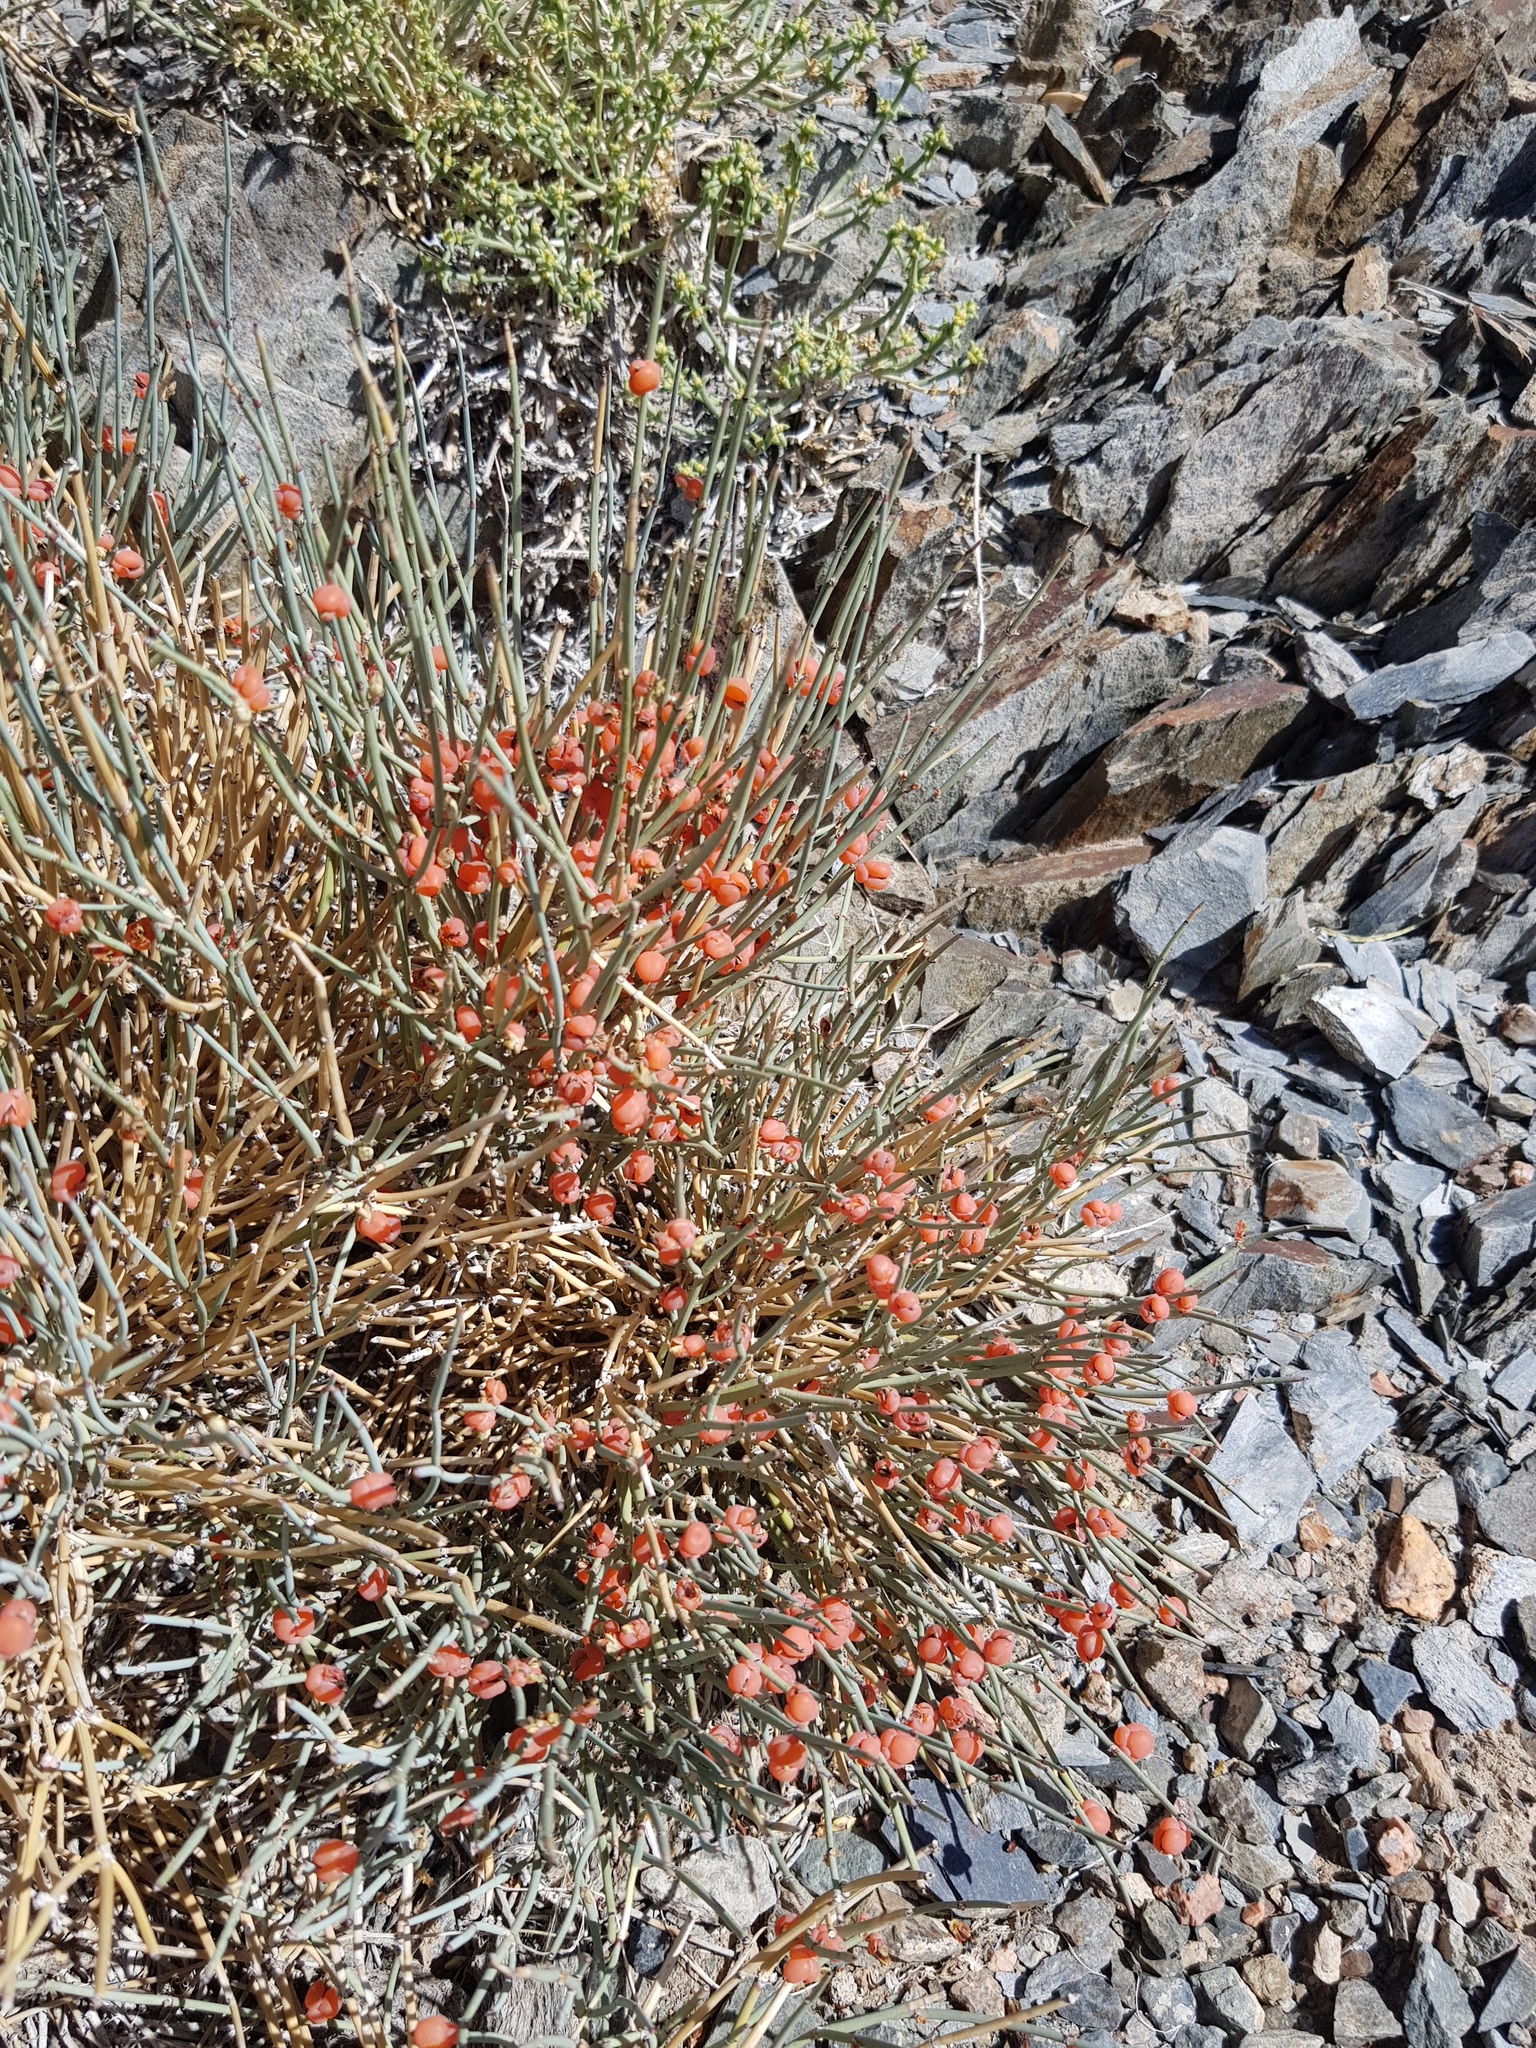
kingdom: Plantae
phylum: Tracheophyta
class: Gnetopsida
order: Ephedrales
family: Ephedraceae
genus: Ephedra
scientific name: Ephedra equisetina
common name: Mongolian ephedra
